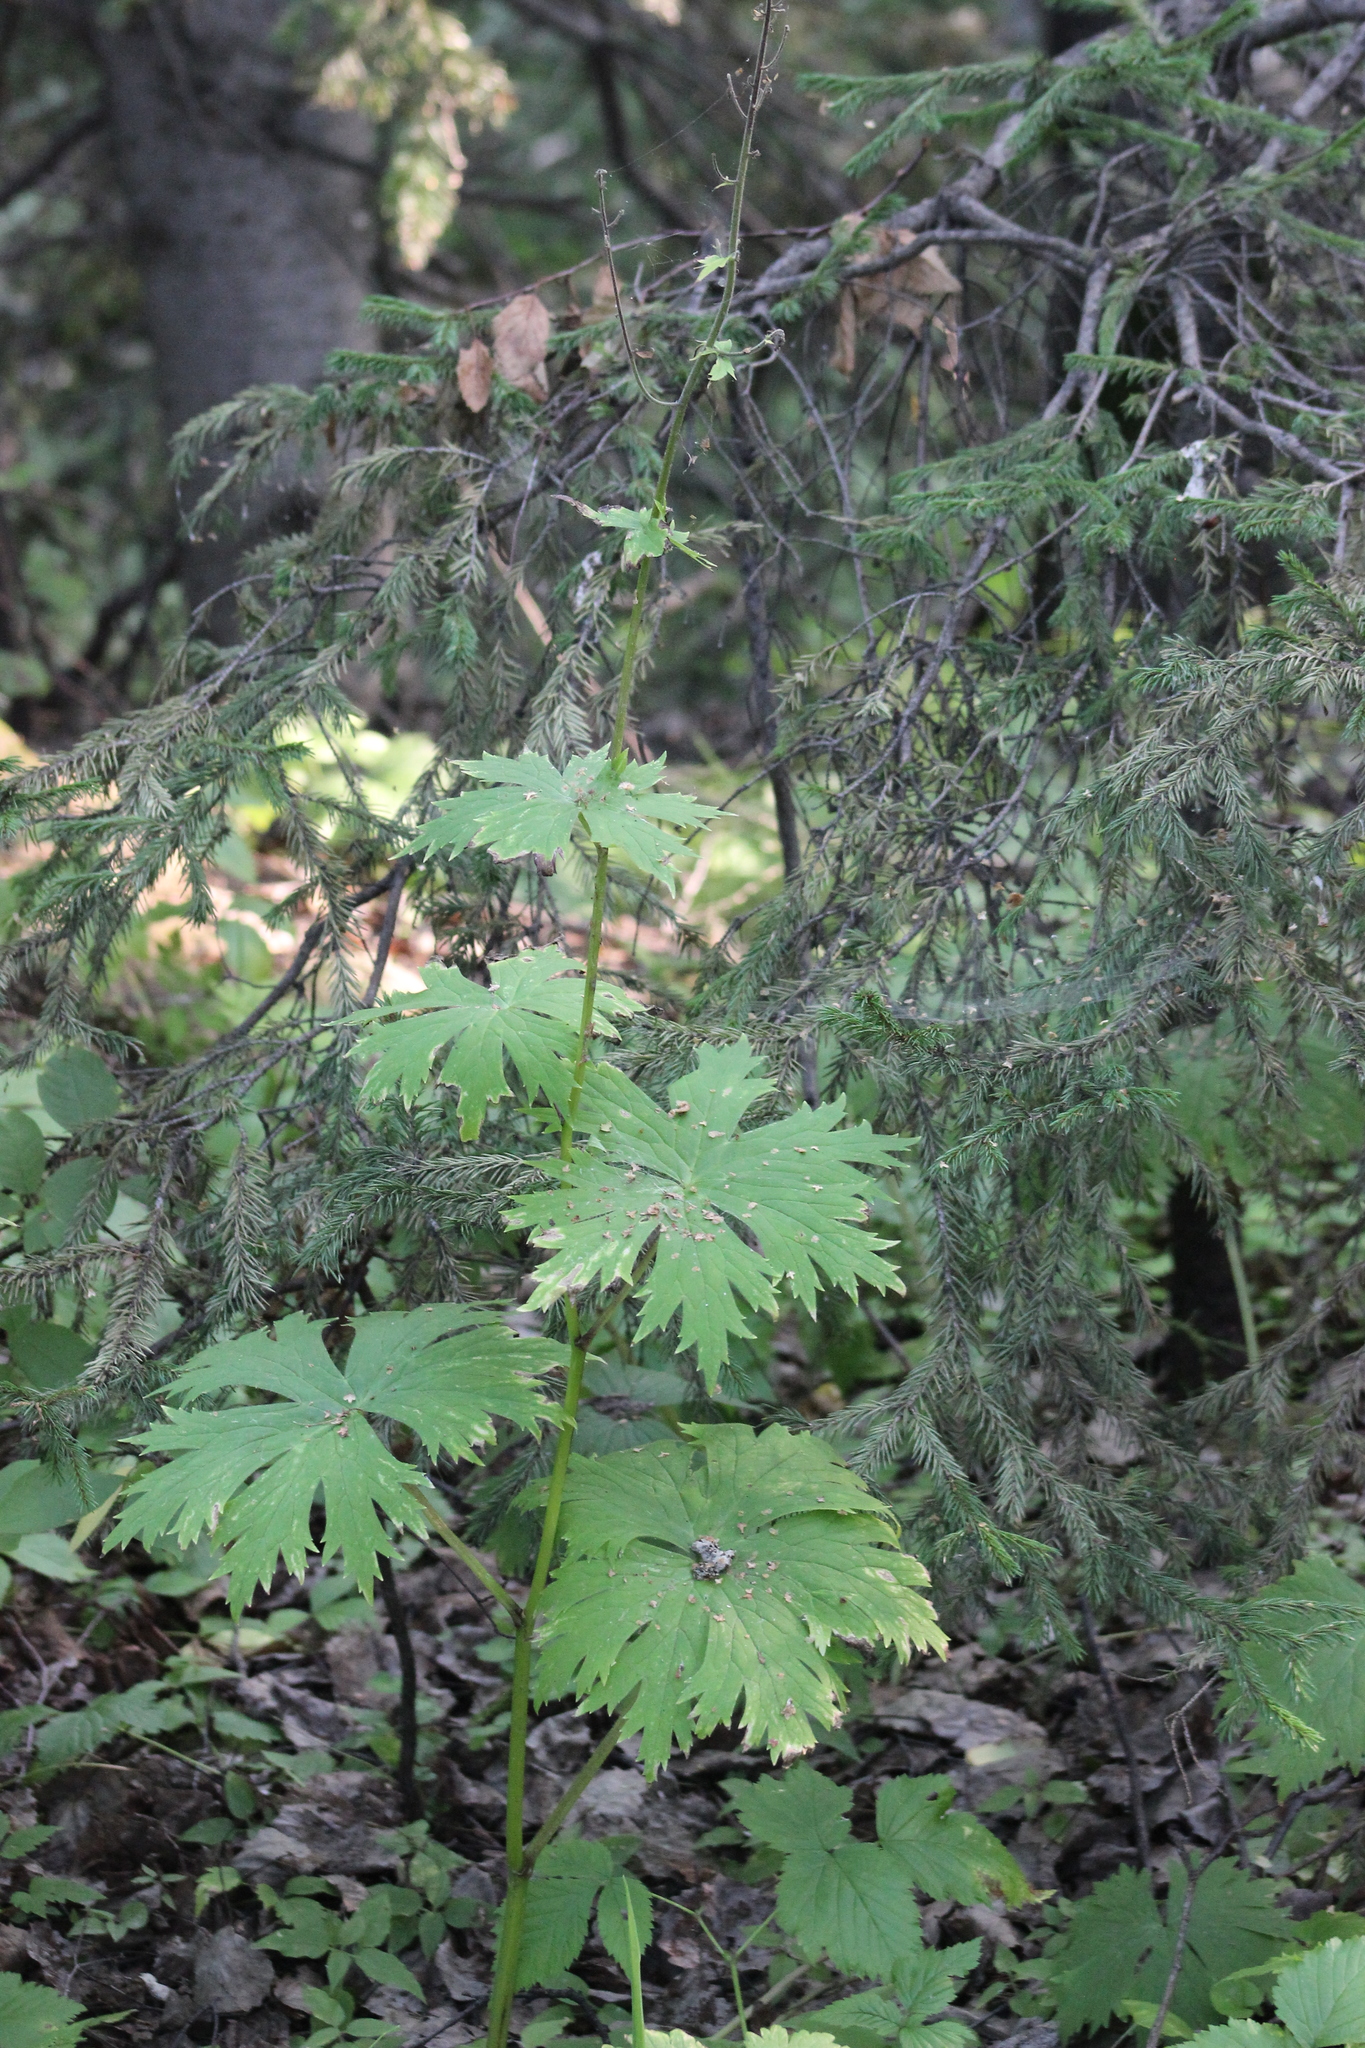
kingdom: Plantae
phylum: Tracheophyta
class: Magnoliopsida
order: Ranunculales
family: Ranunculaceae
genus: Aconitum
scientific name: Aconitum septentrionale
